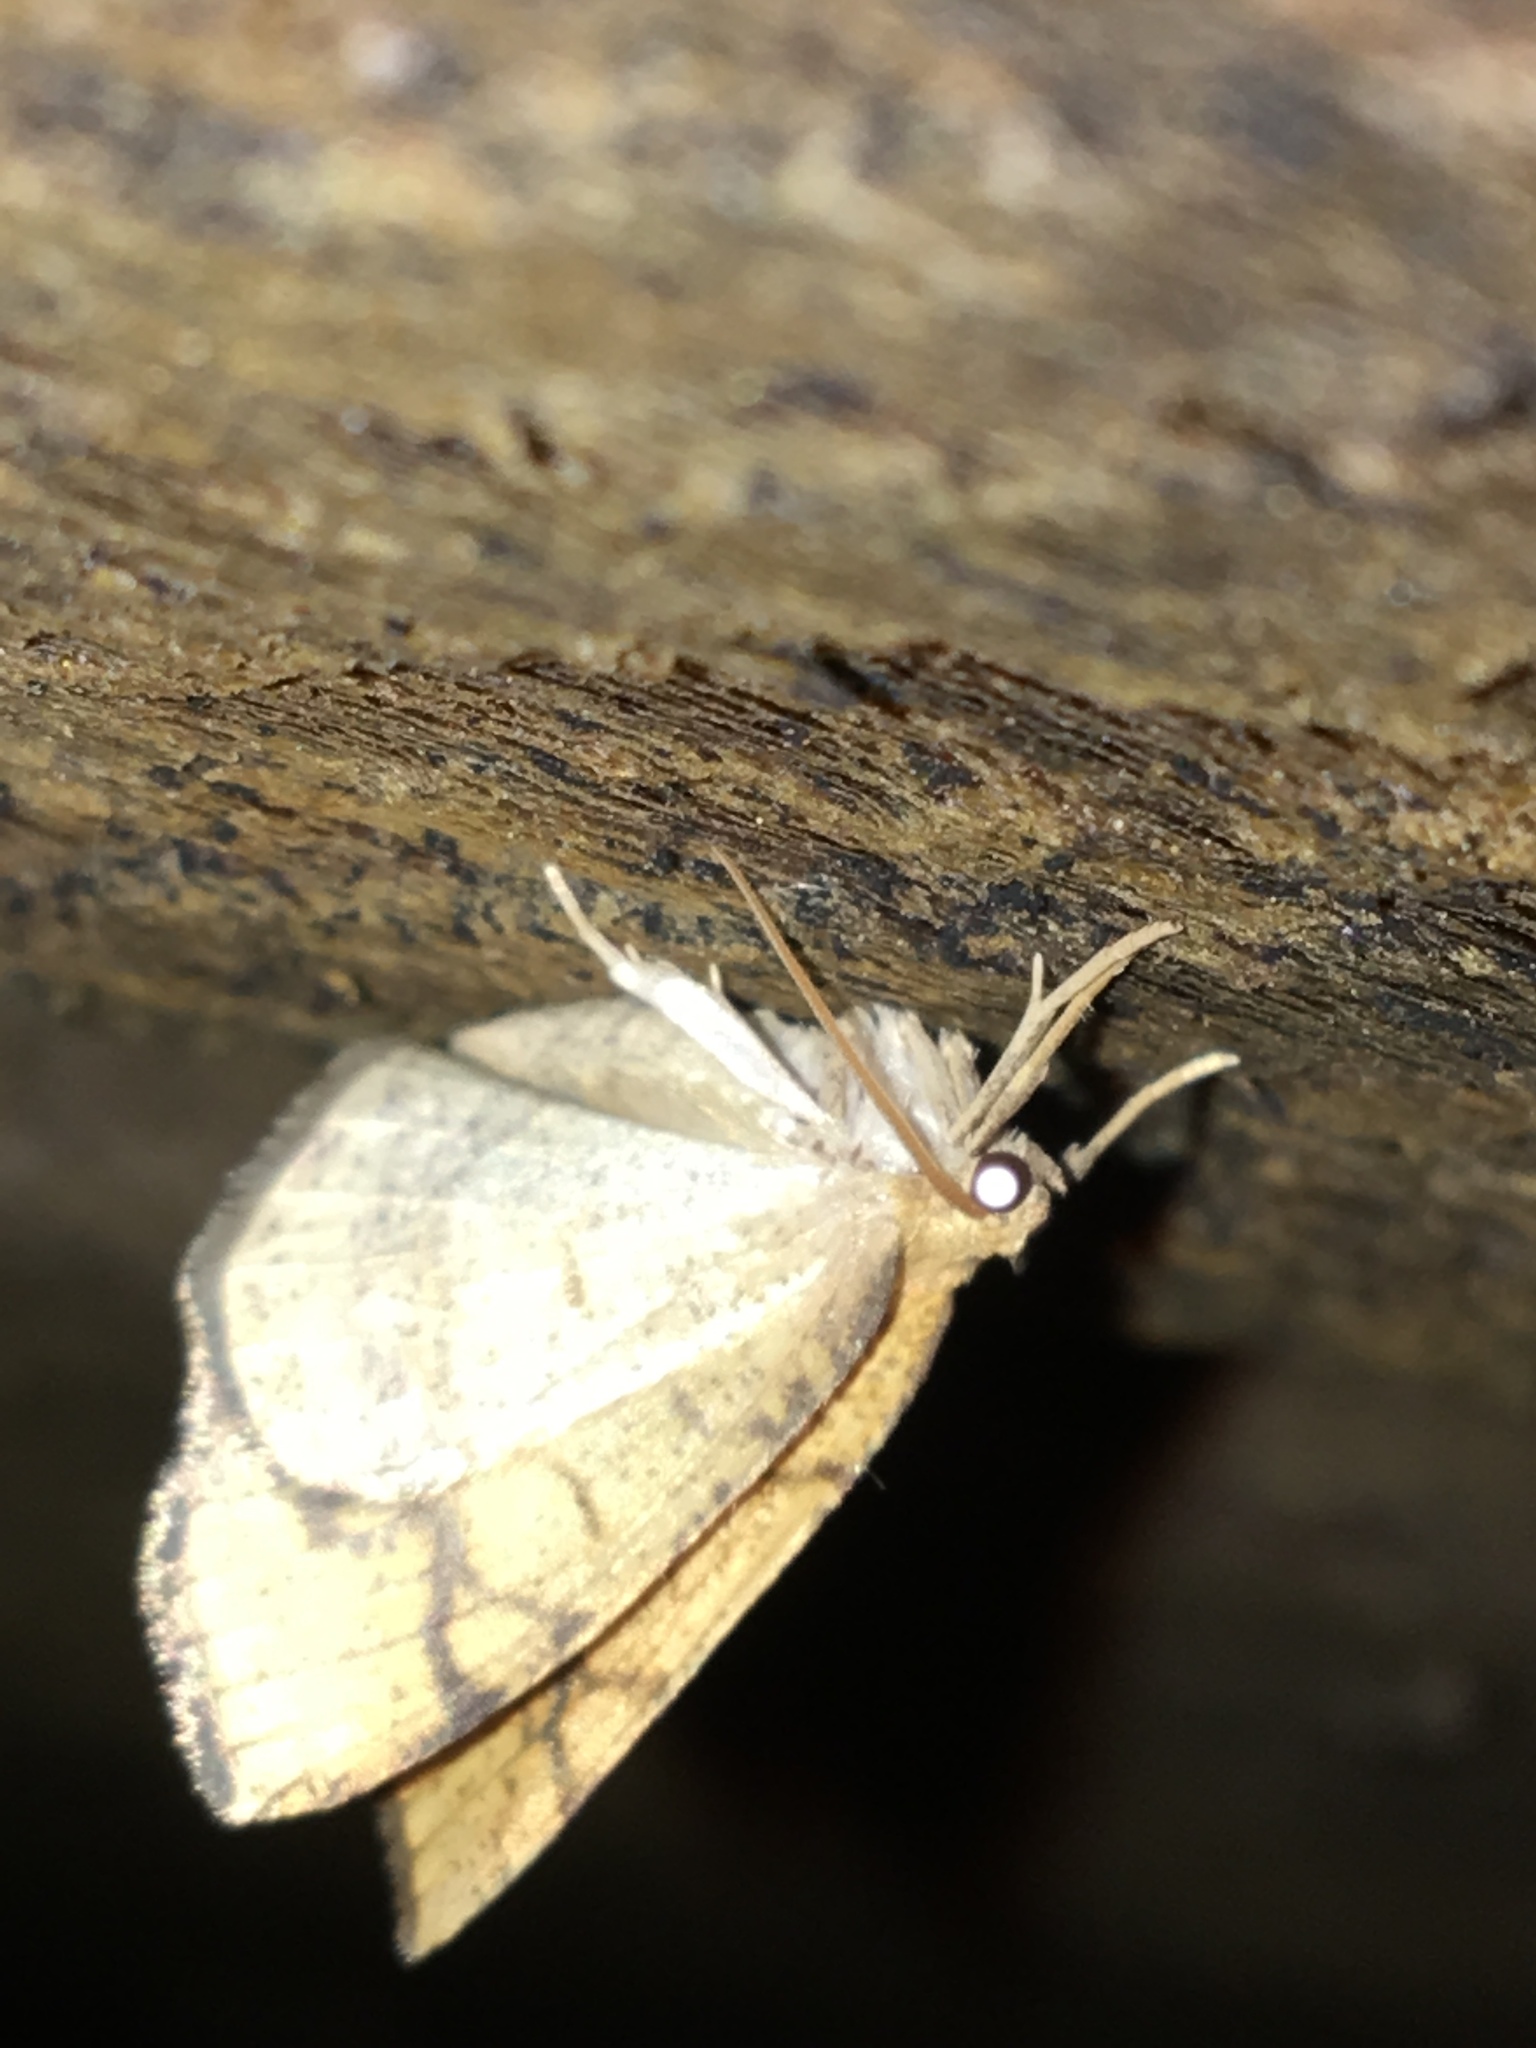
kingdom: Animalia
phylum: Arthropoda
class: Insecta
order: Lepidoptera
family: Geometridae
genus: Nematocampa
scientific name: Nematocampa resistaria
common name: Horned spanworm moth
